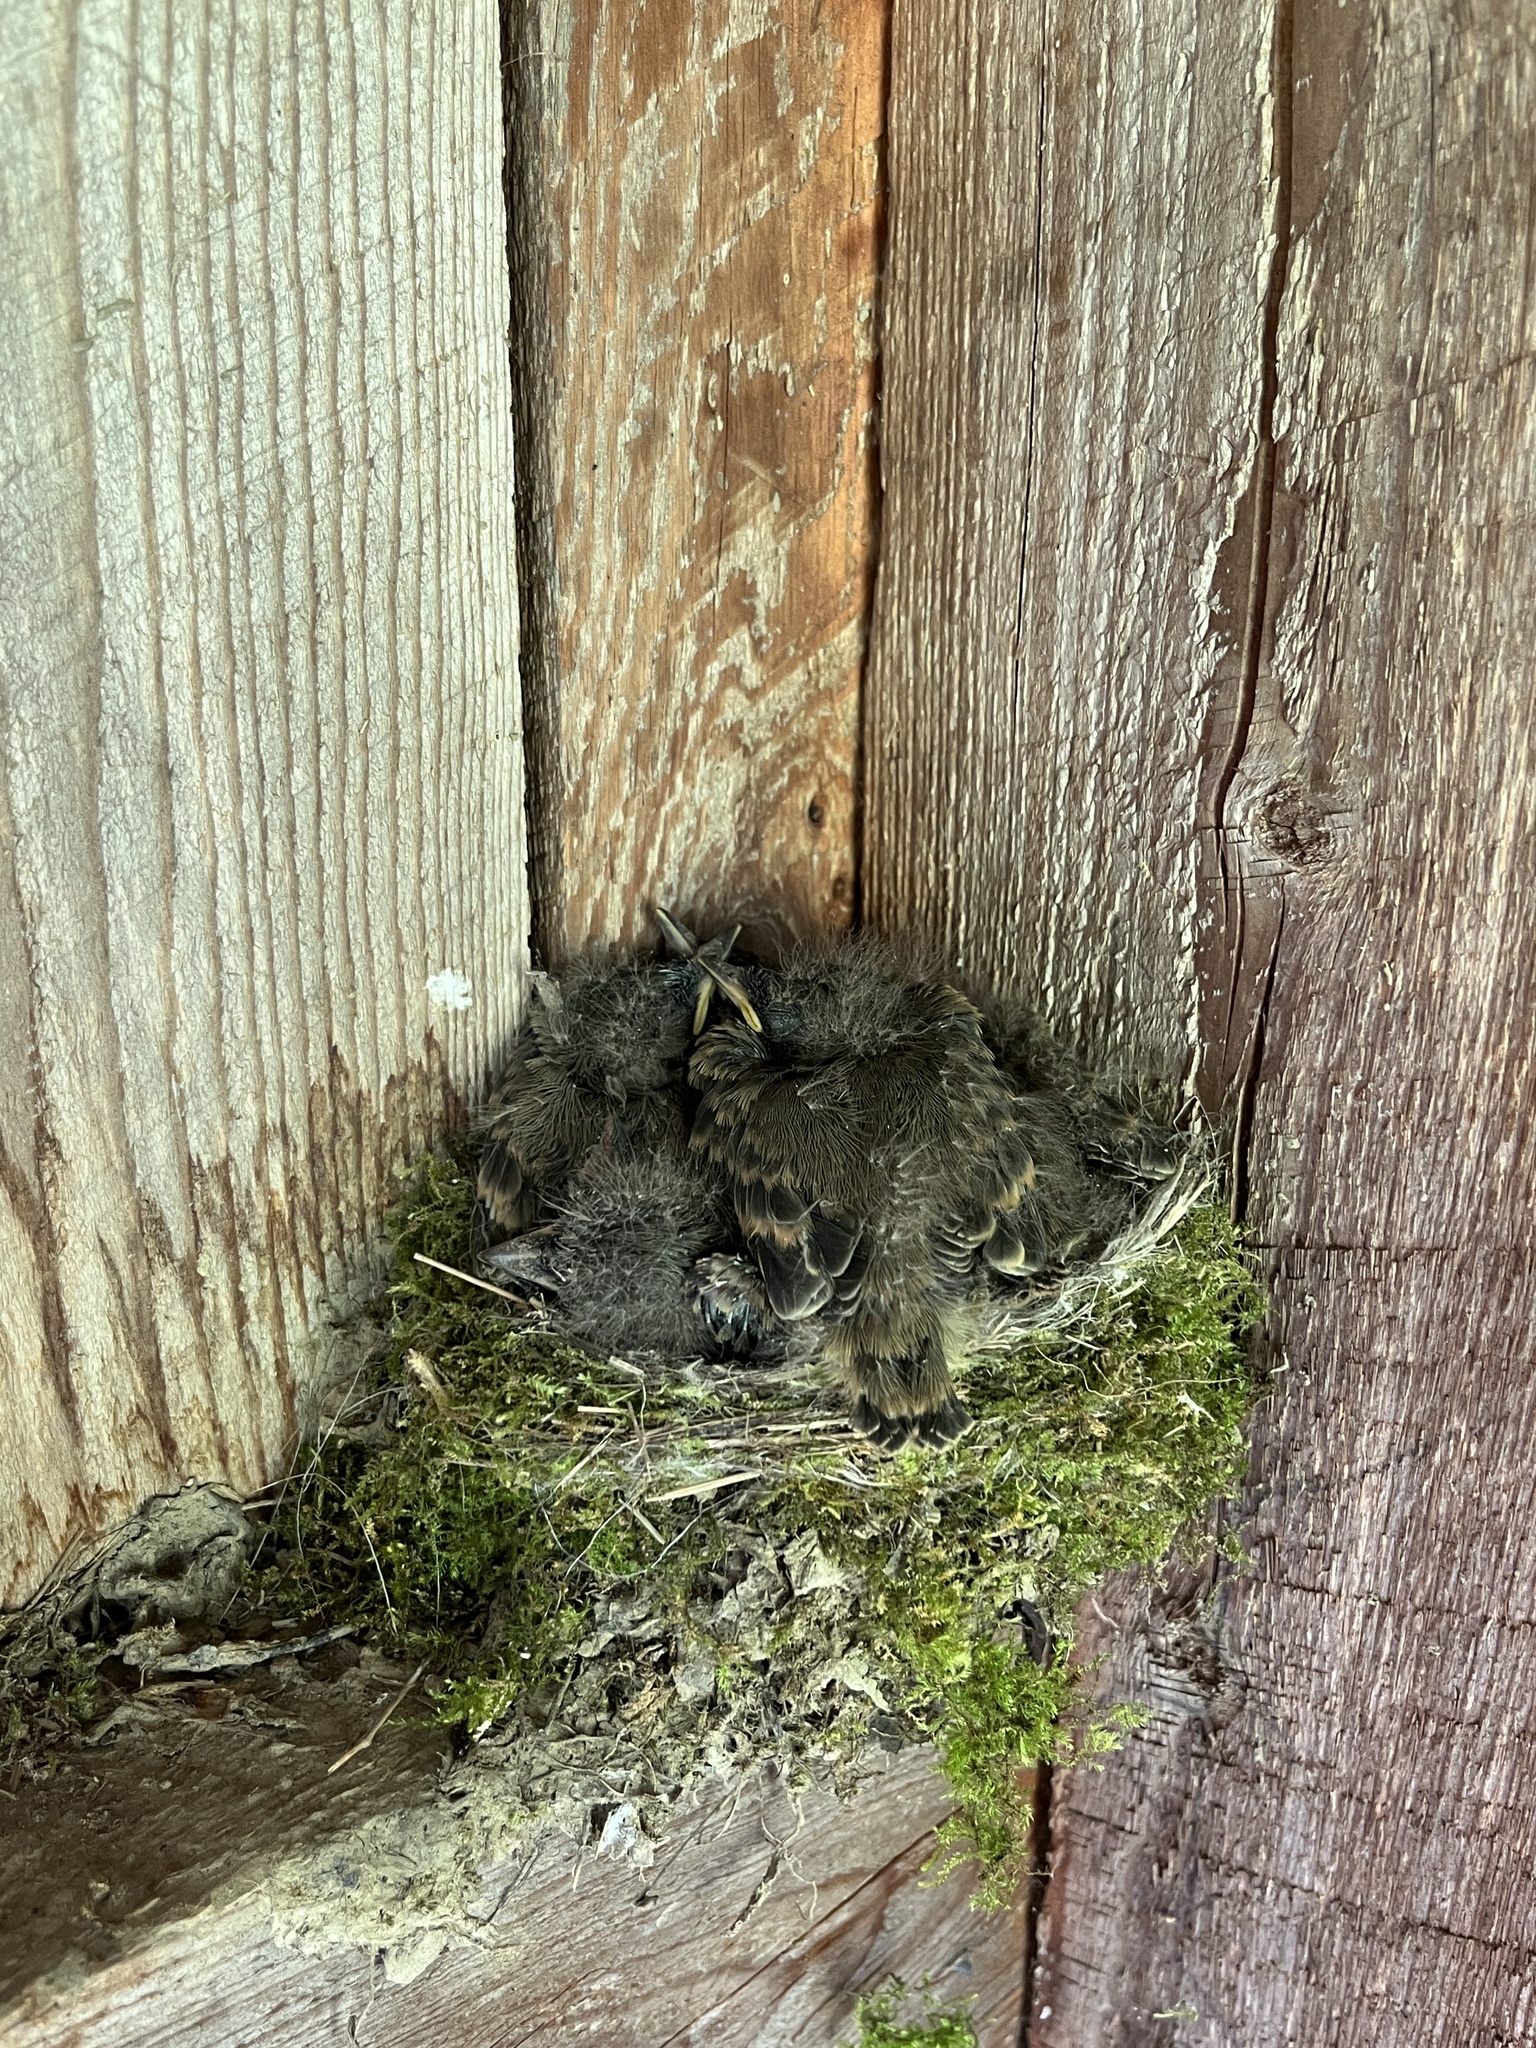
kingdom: Animalia
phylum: Chordata
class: Aves
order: Passeriformes
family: Tyrannidae
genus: Sayornis
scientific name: Sayornis phoebe
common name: Eastern phoebe
